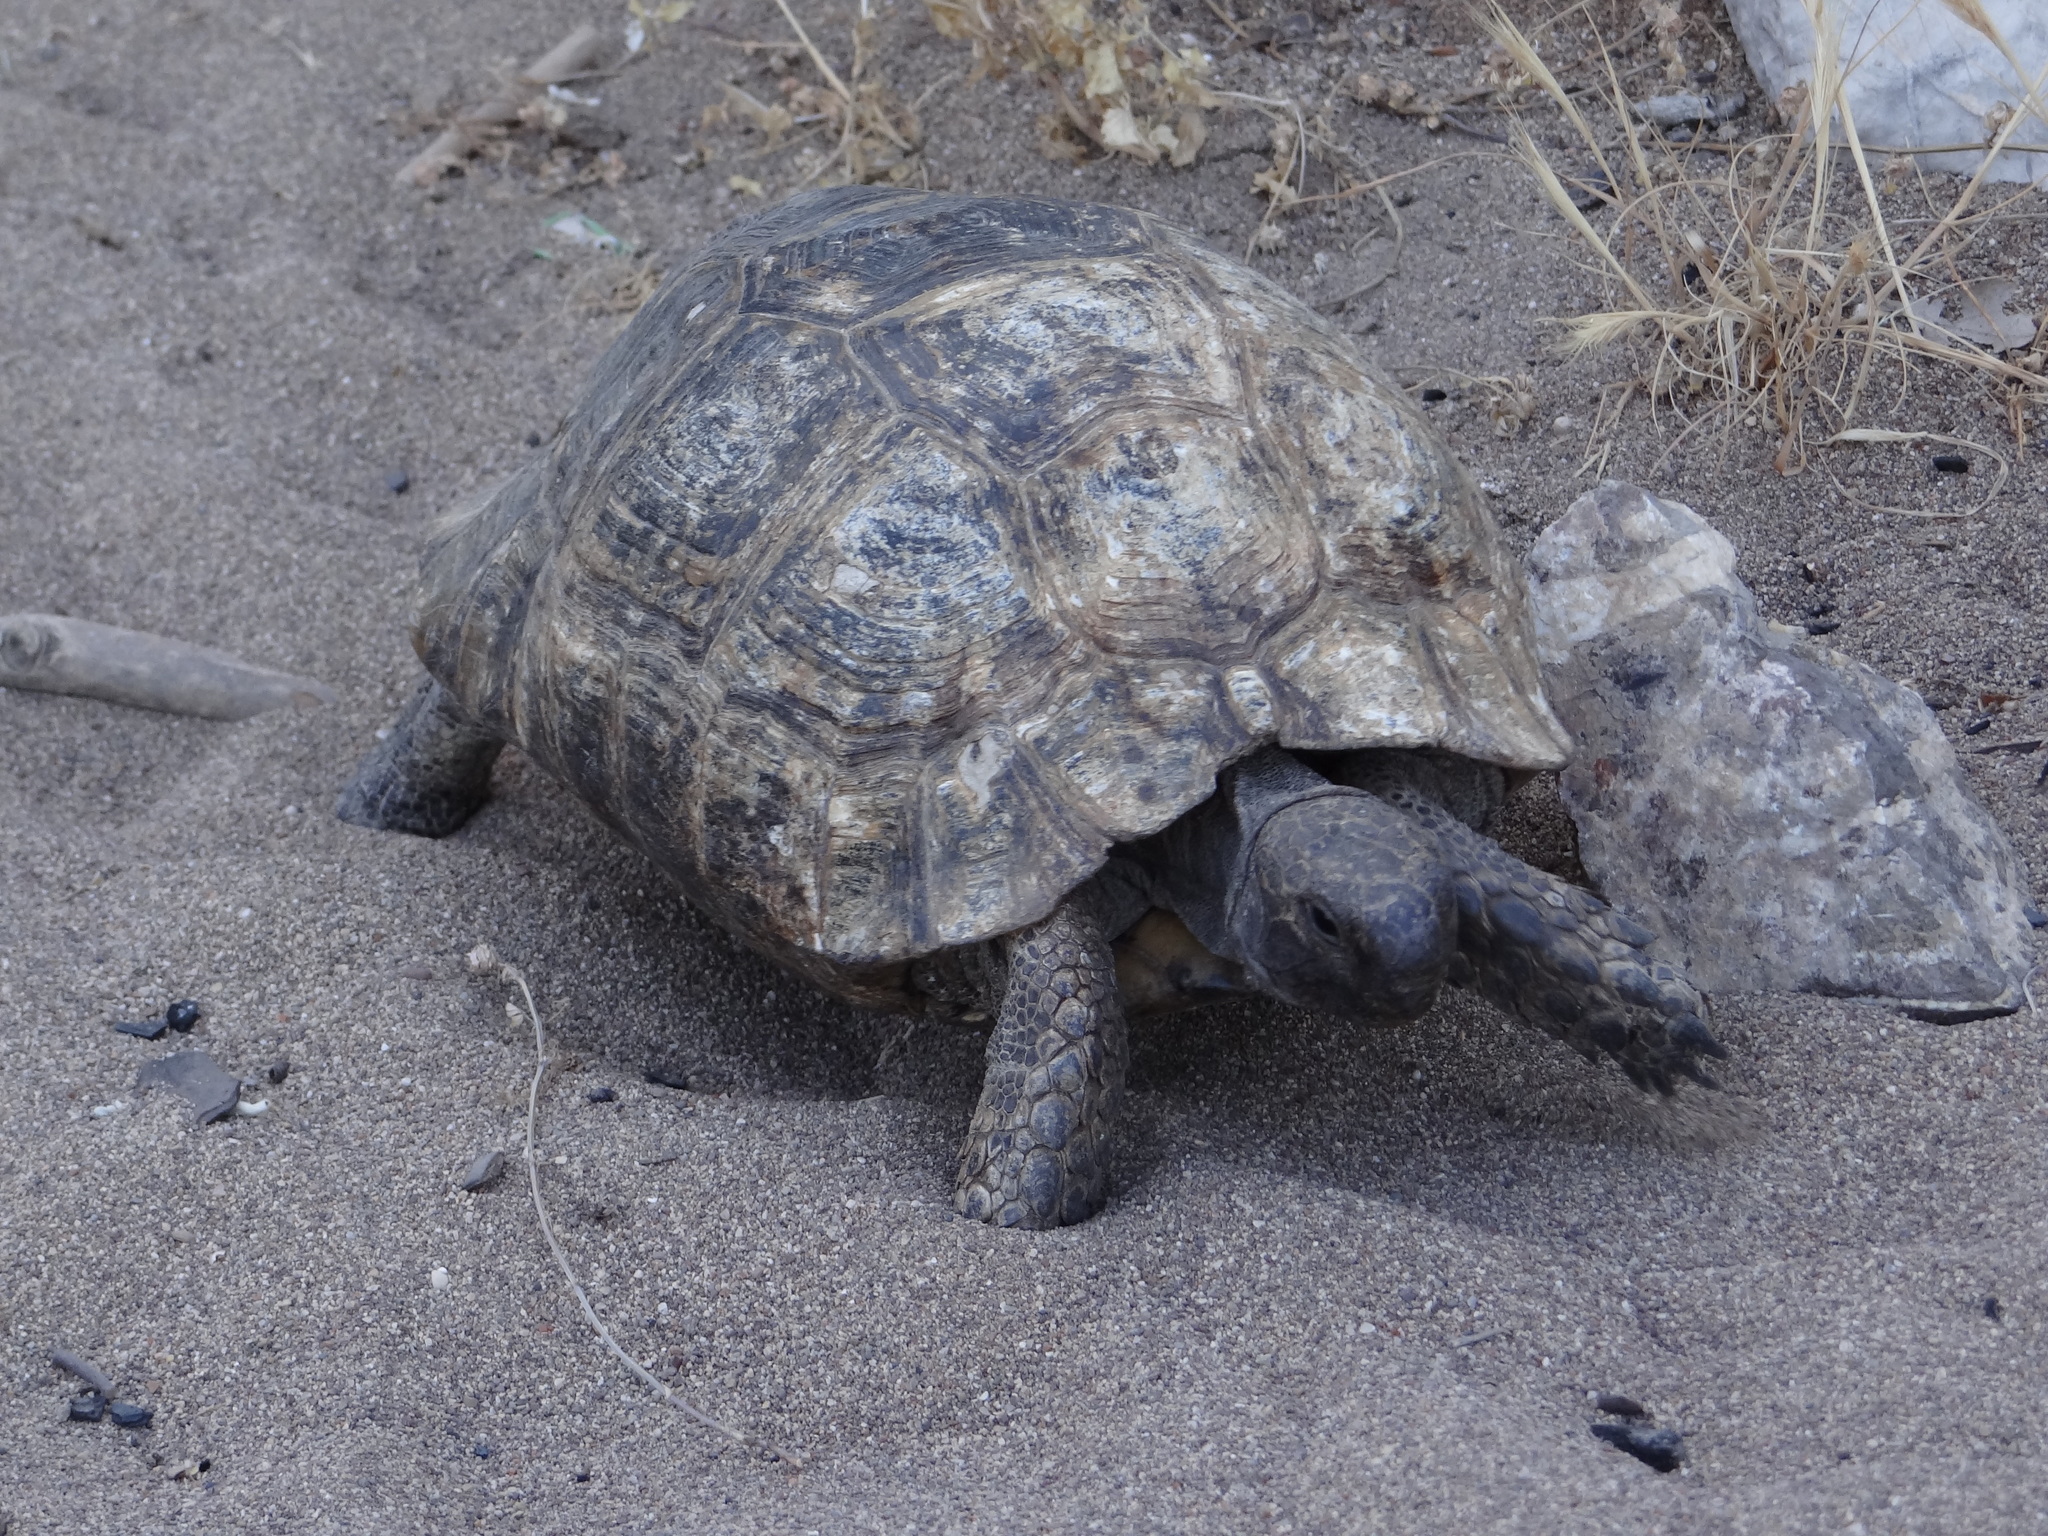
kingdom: Animalia
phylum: Chordata
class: Testudines
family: Testudinidae
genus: Testudo
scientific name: Testudo graeca
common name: Common tortoise
